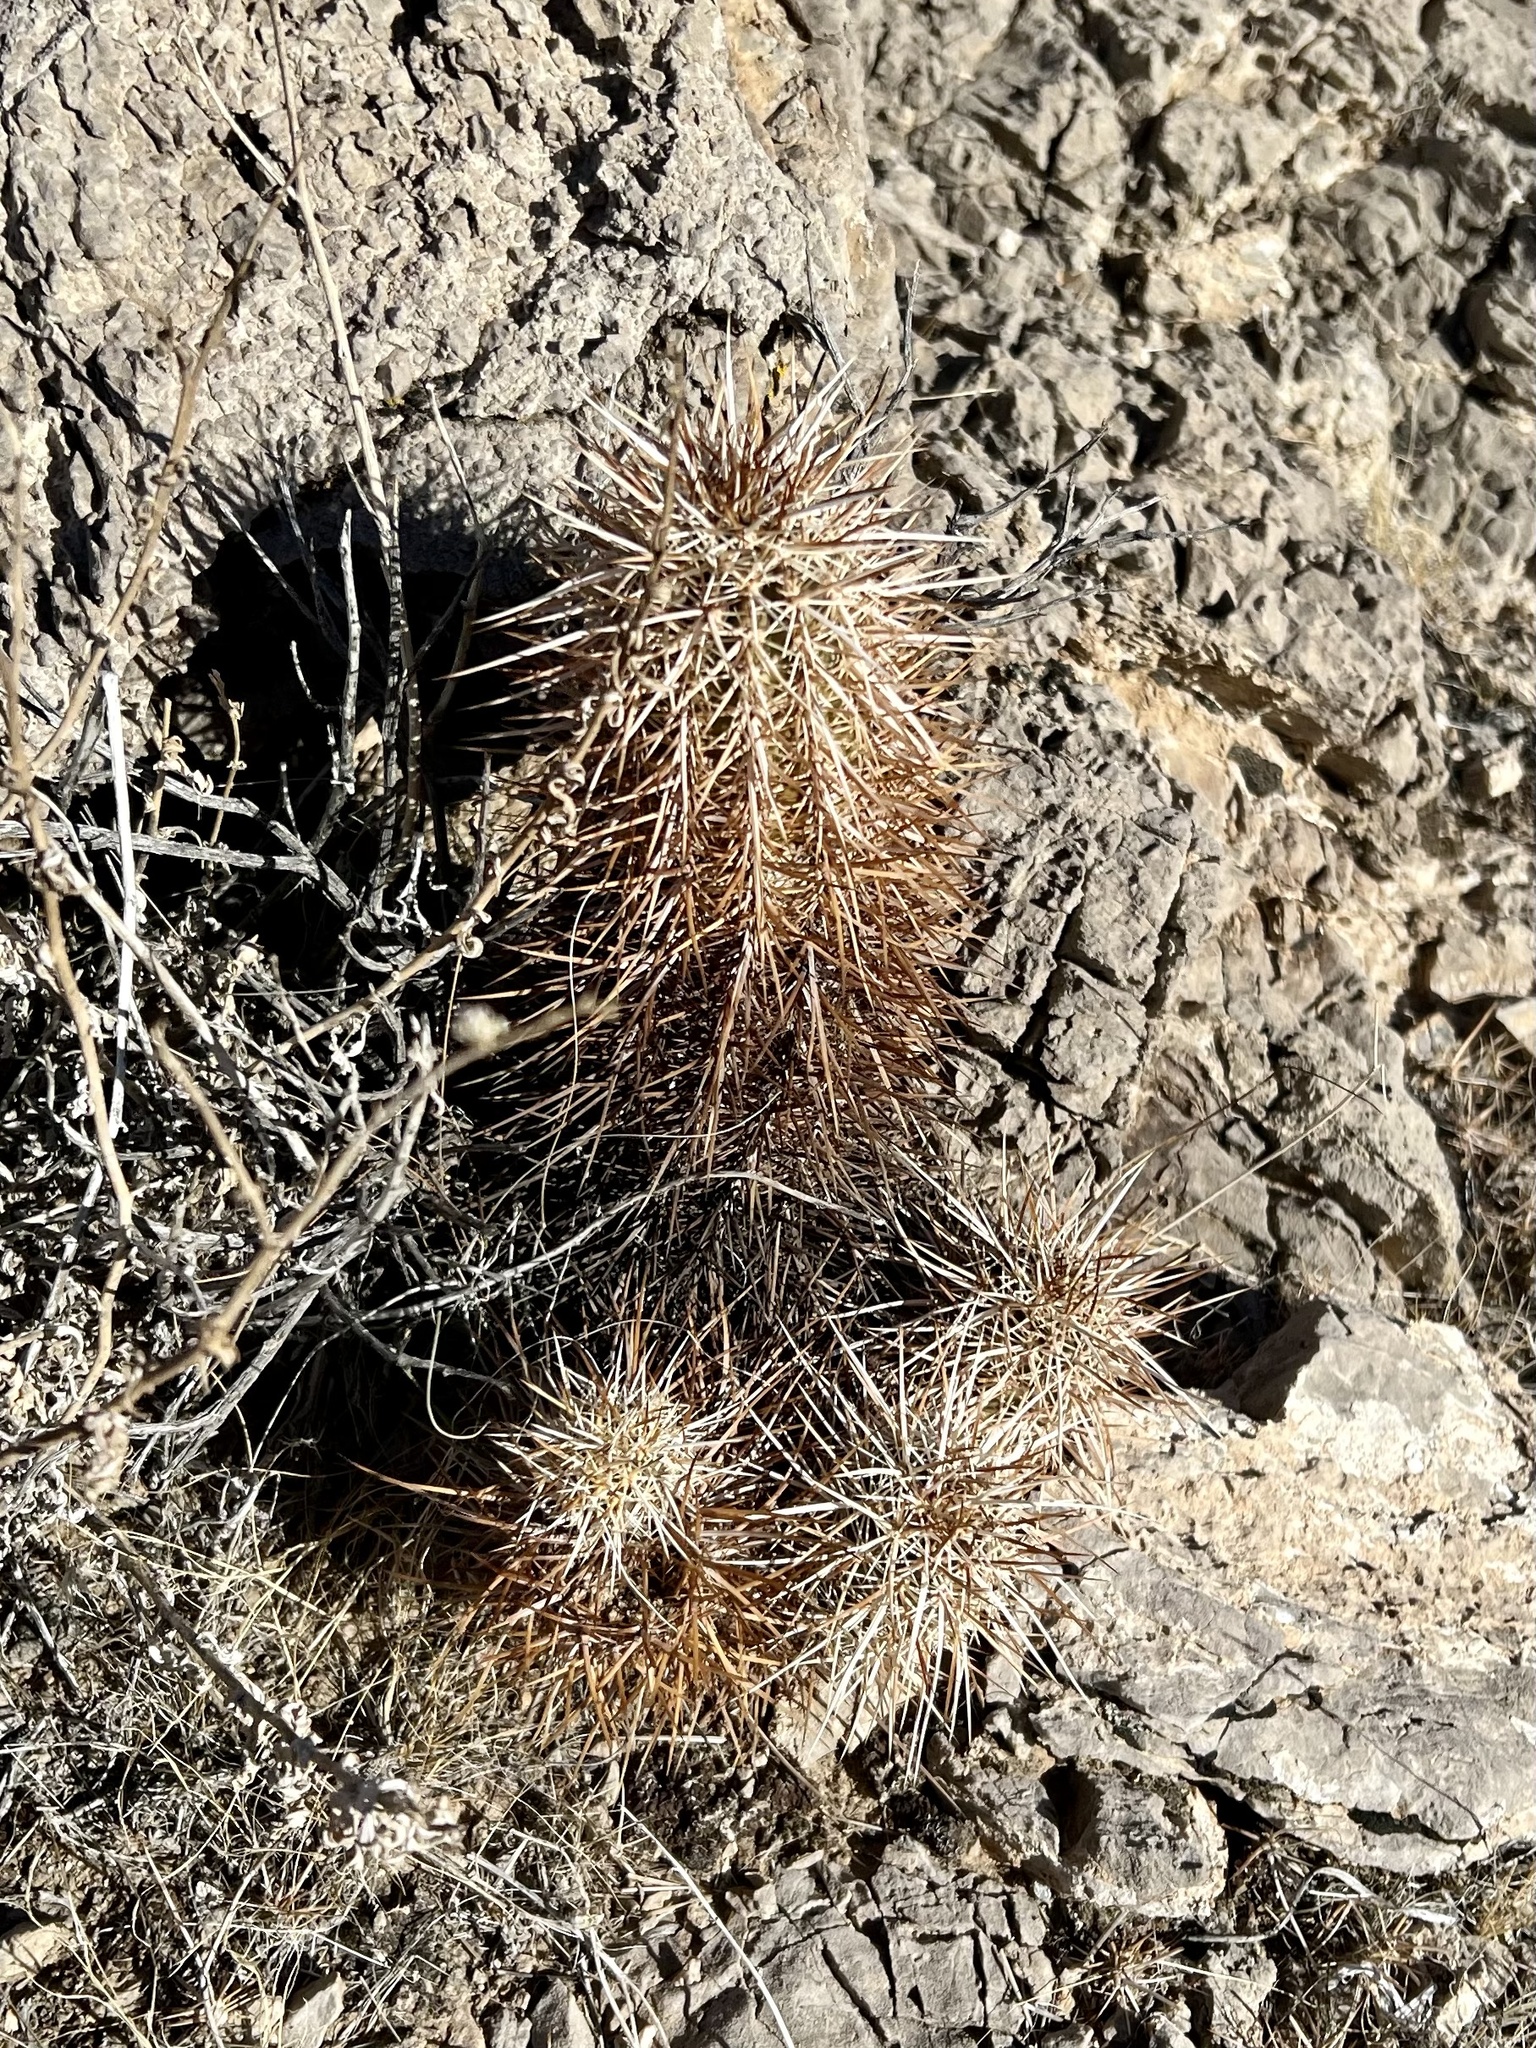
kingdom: Plantae
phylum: Tracheophyta
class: Magnoliopsida
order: Caryophyllales
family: Cactaceae
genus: Echinocereus
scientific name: Echinocereus engelmannii
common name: Engelmann's hedgehog cactus
